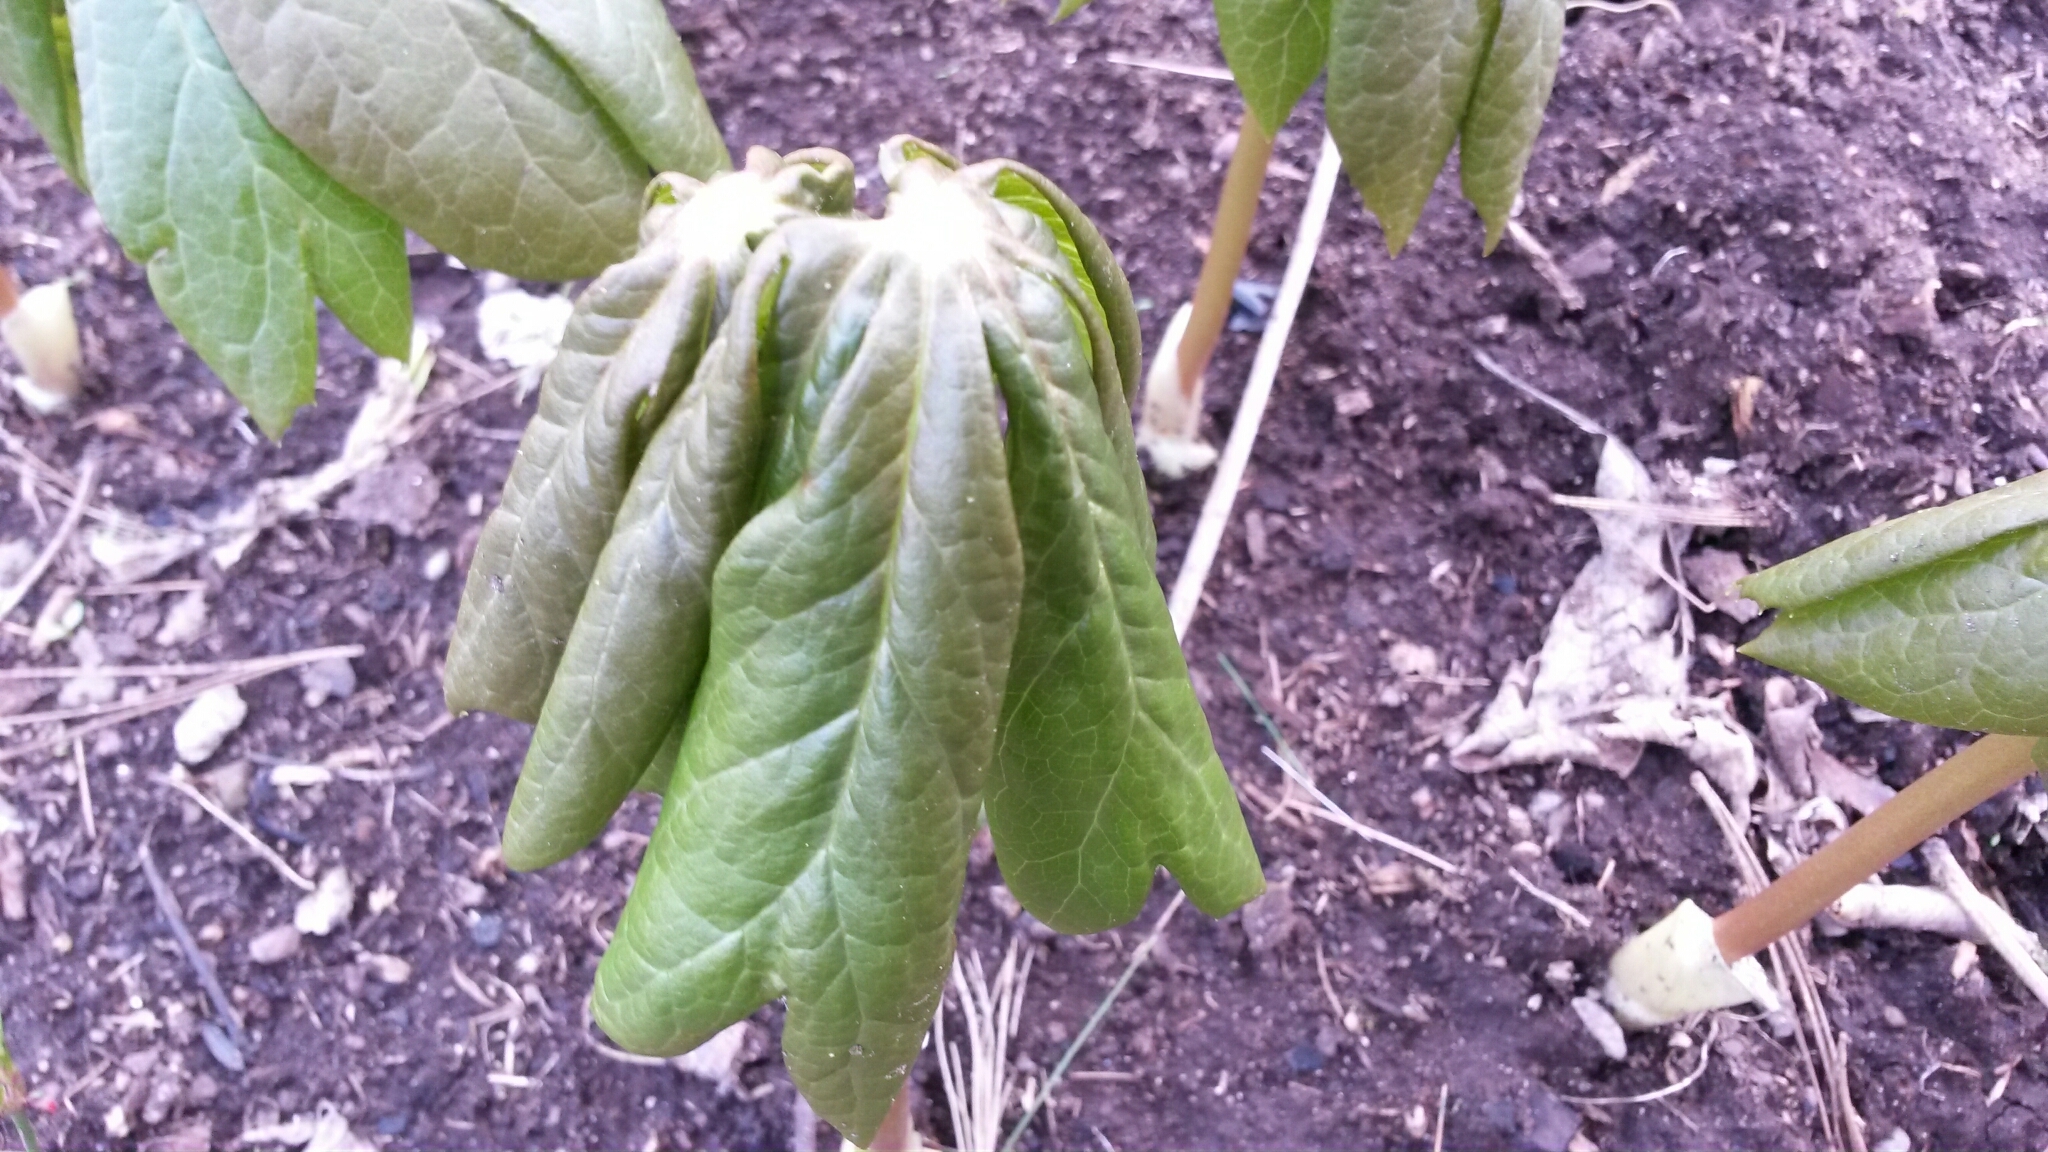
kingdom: Plantae
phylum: Tracheophyta
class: Magnoliopsida
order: Ranunculales
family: Berberidaceae
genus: Podophyllum
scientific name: Podophyllum peltatum
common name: Wild mandrake
